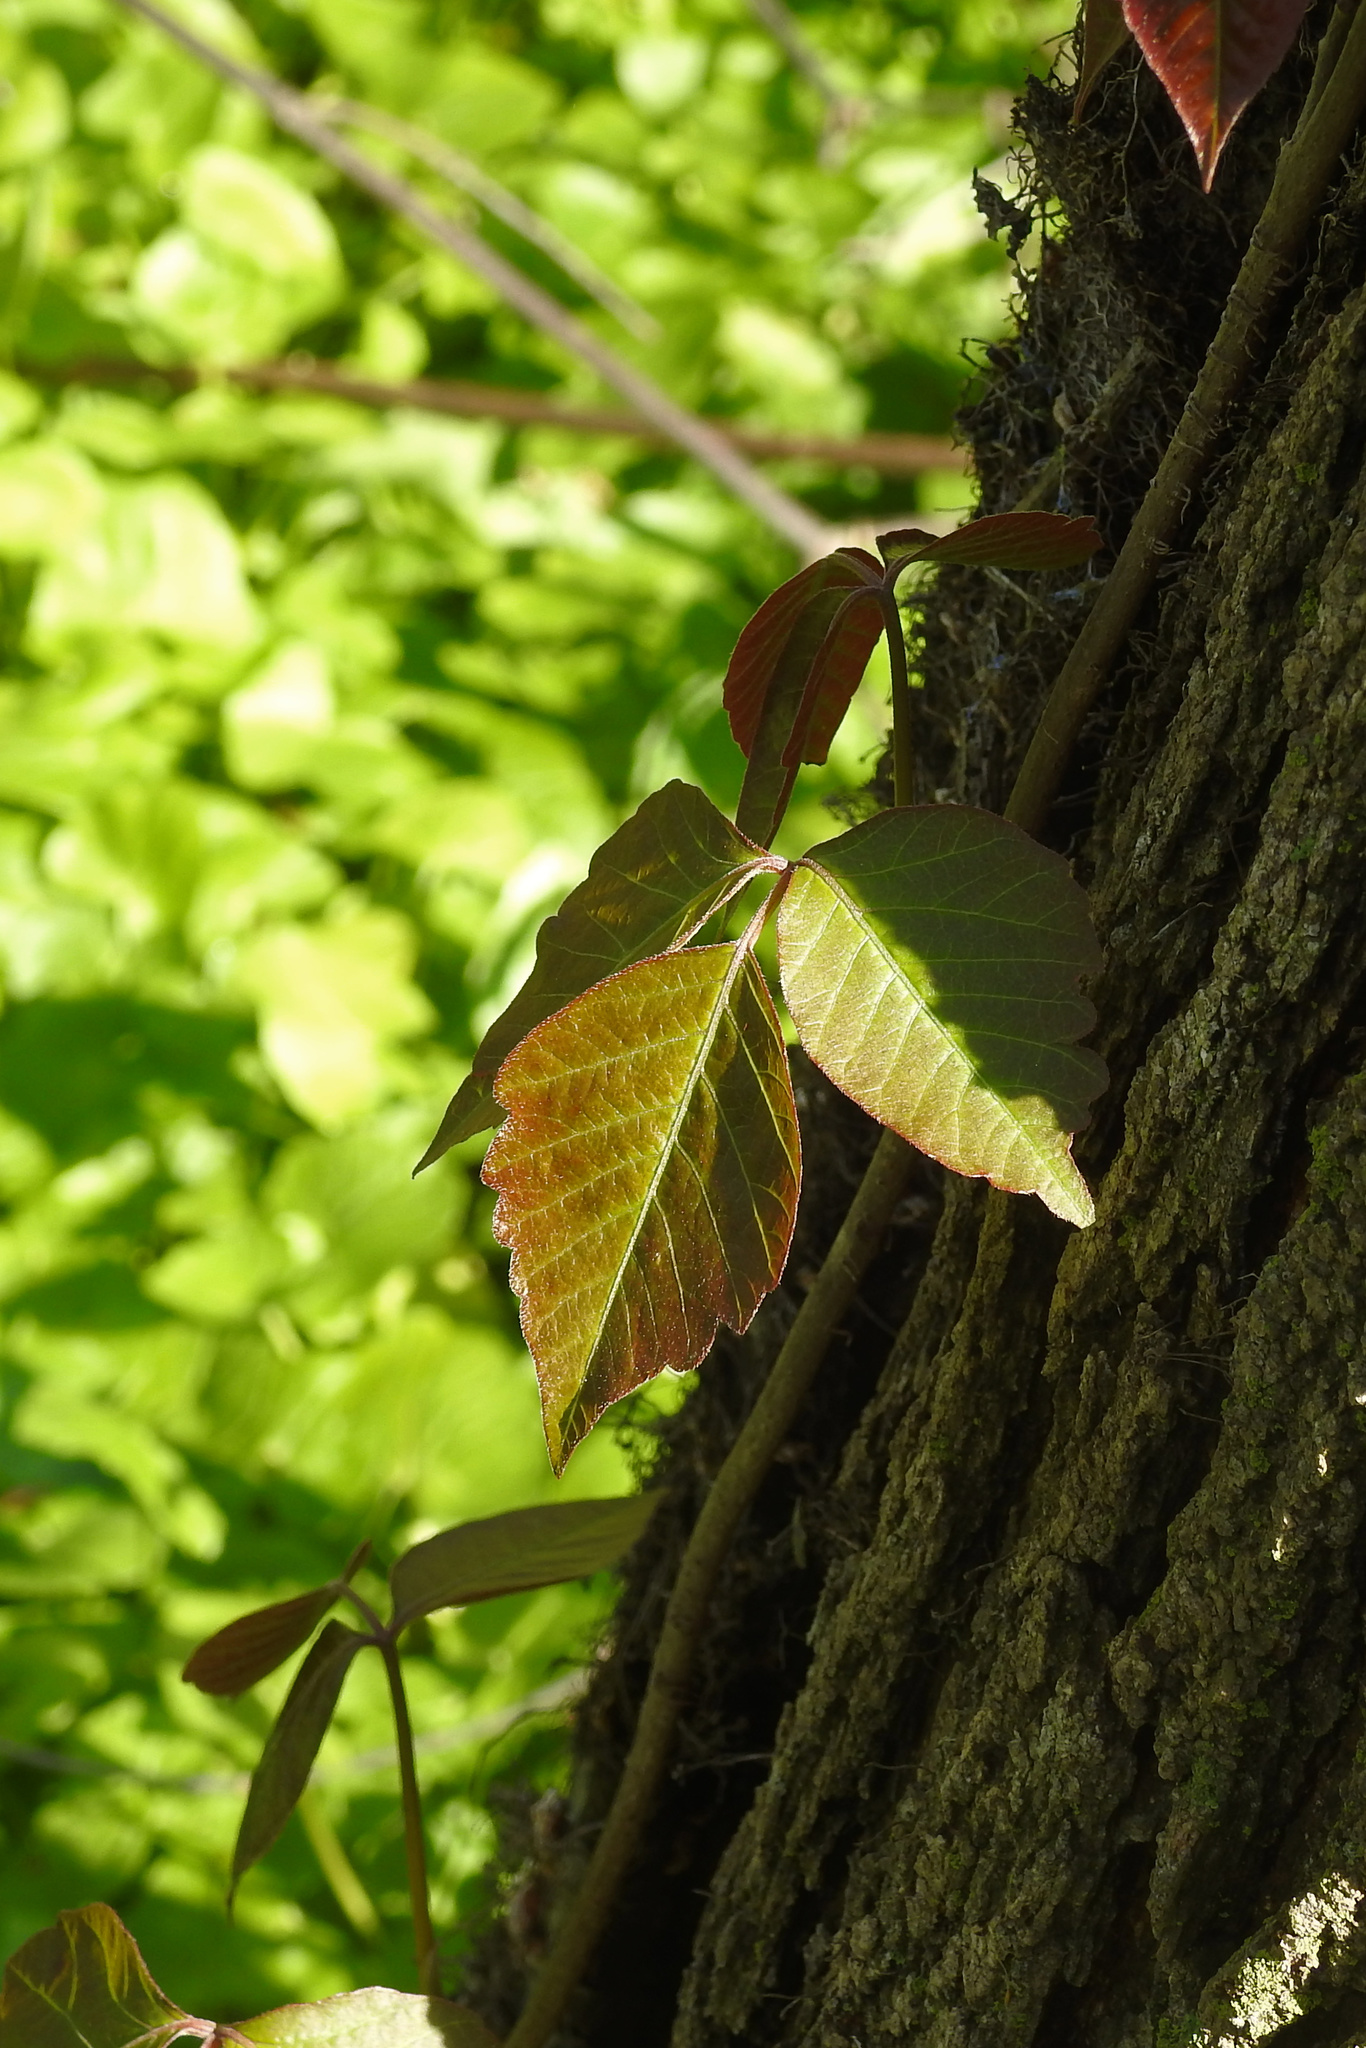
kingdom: Plantae
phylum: Tracheophyta
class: Magnoliopsida
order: Sapindales
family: Anacardiaceae
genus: Toxicodendron
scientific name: Toxicodendron radicans
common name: Poison ivy
